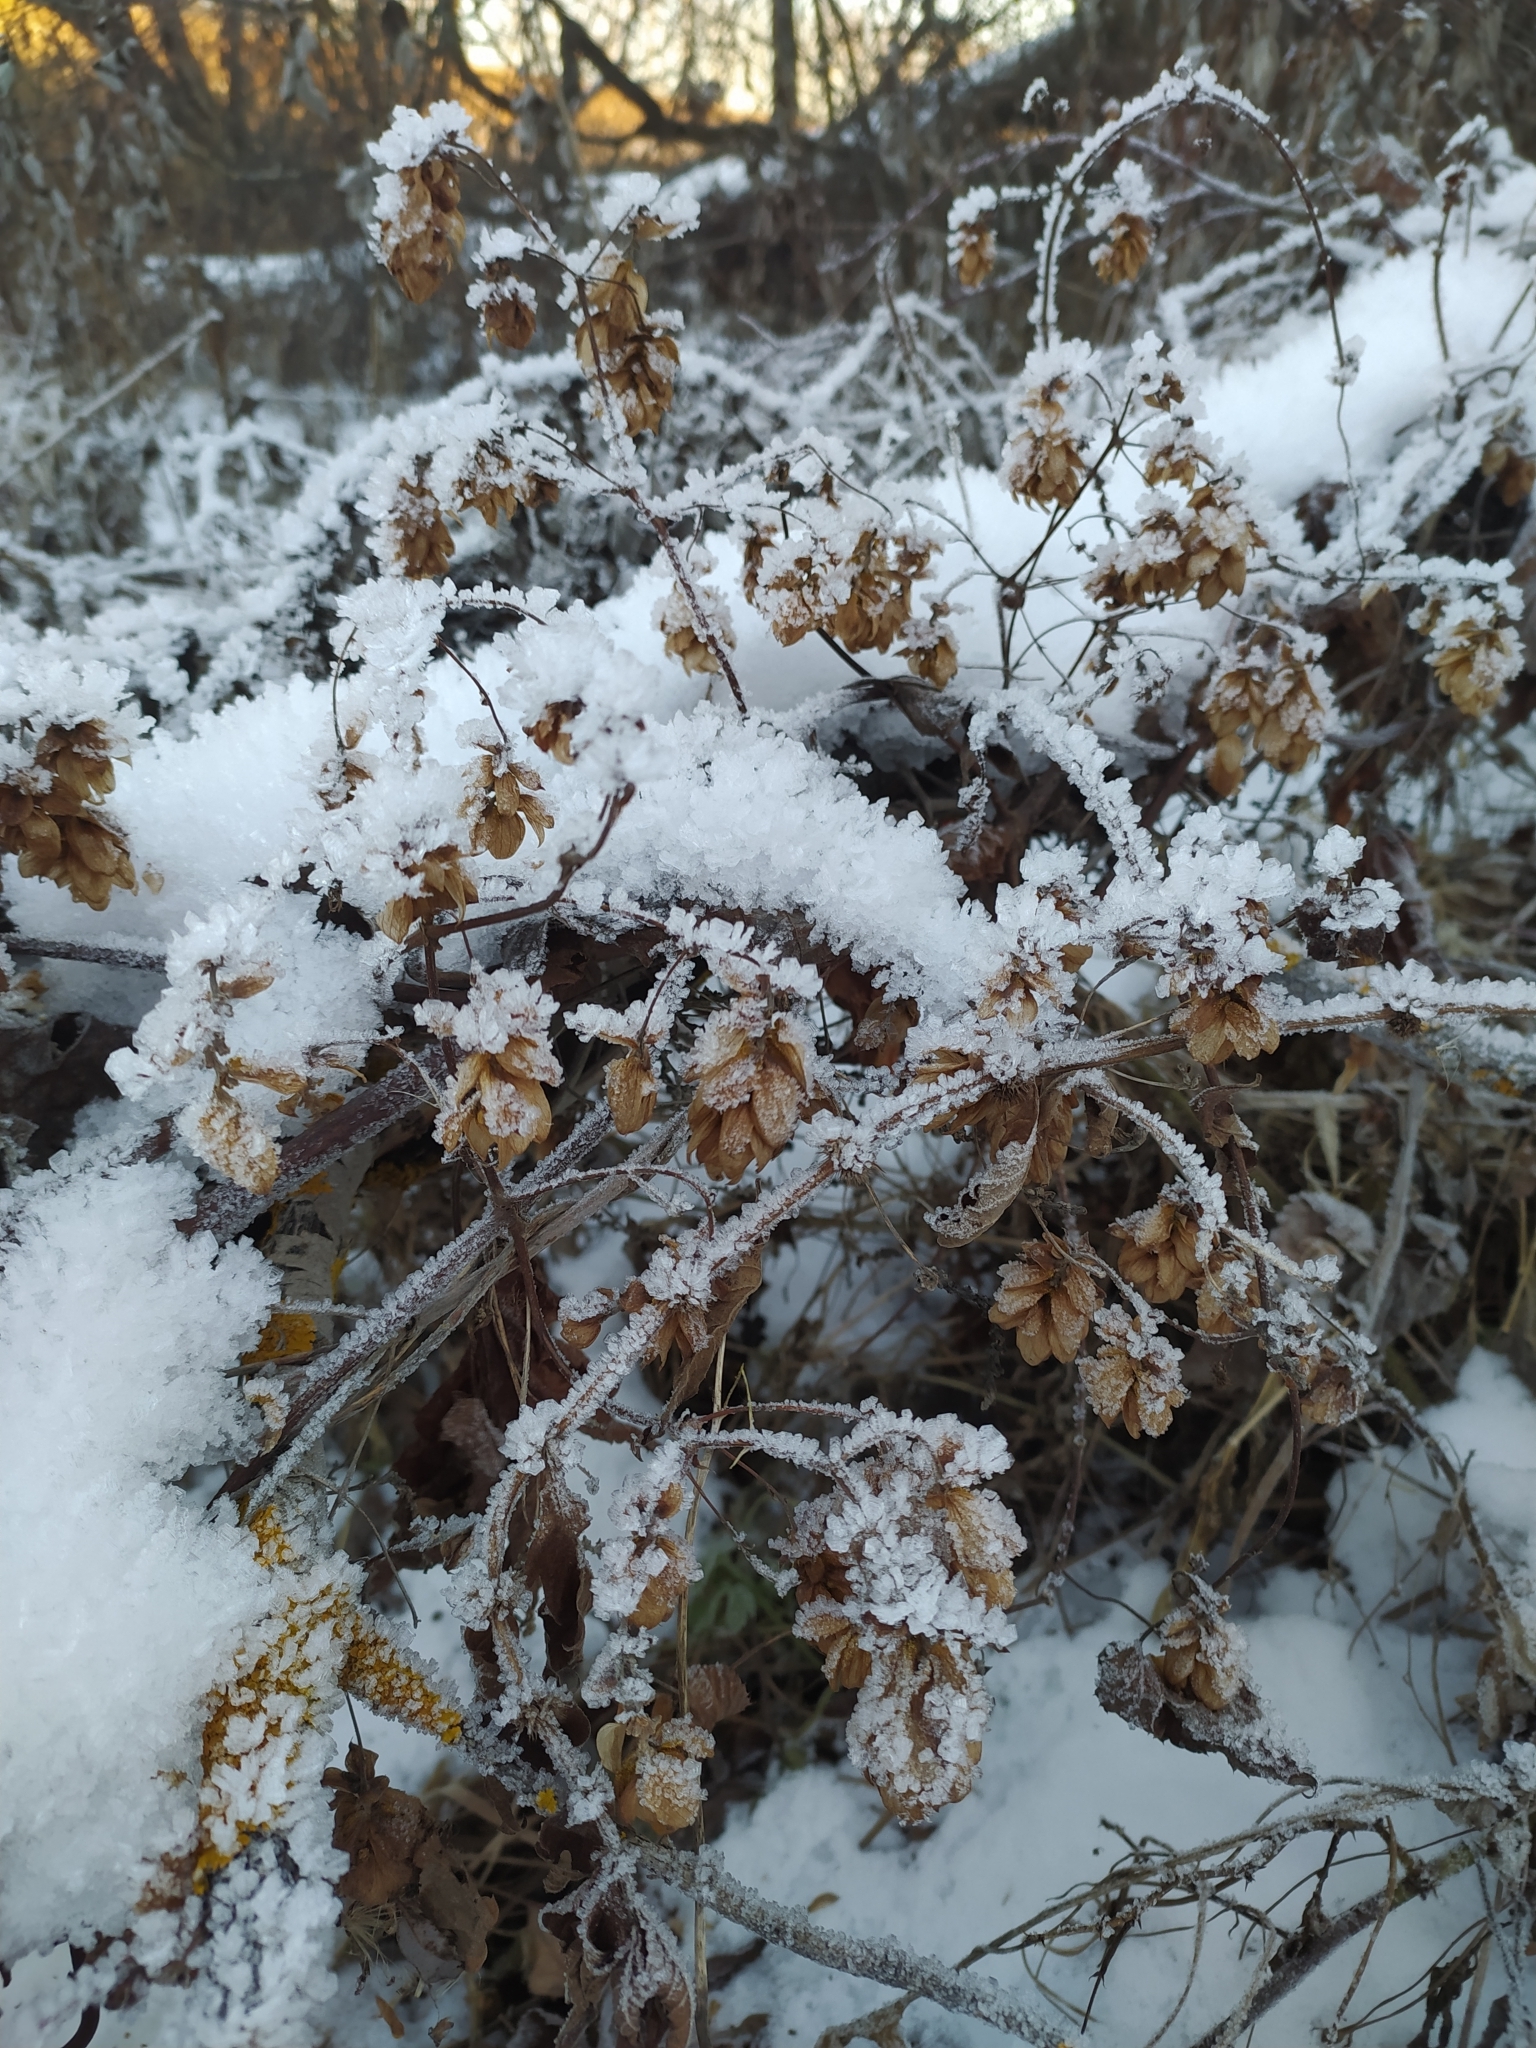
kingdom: Plantae
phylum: Tracheophyta
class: Magnoliopsida
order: Rosales
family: Cannabaceae
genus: Humulus
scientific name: Humulus lupulus
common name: Hop
